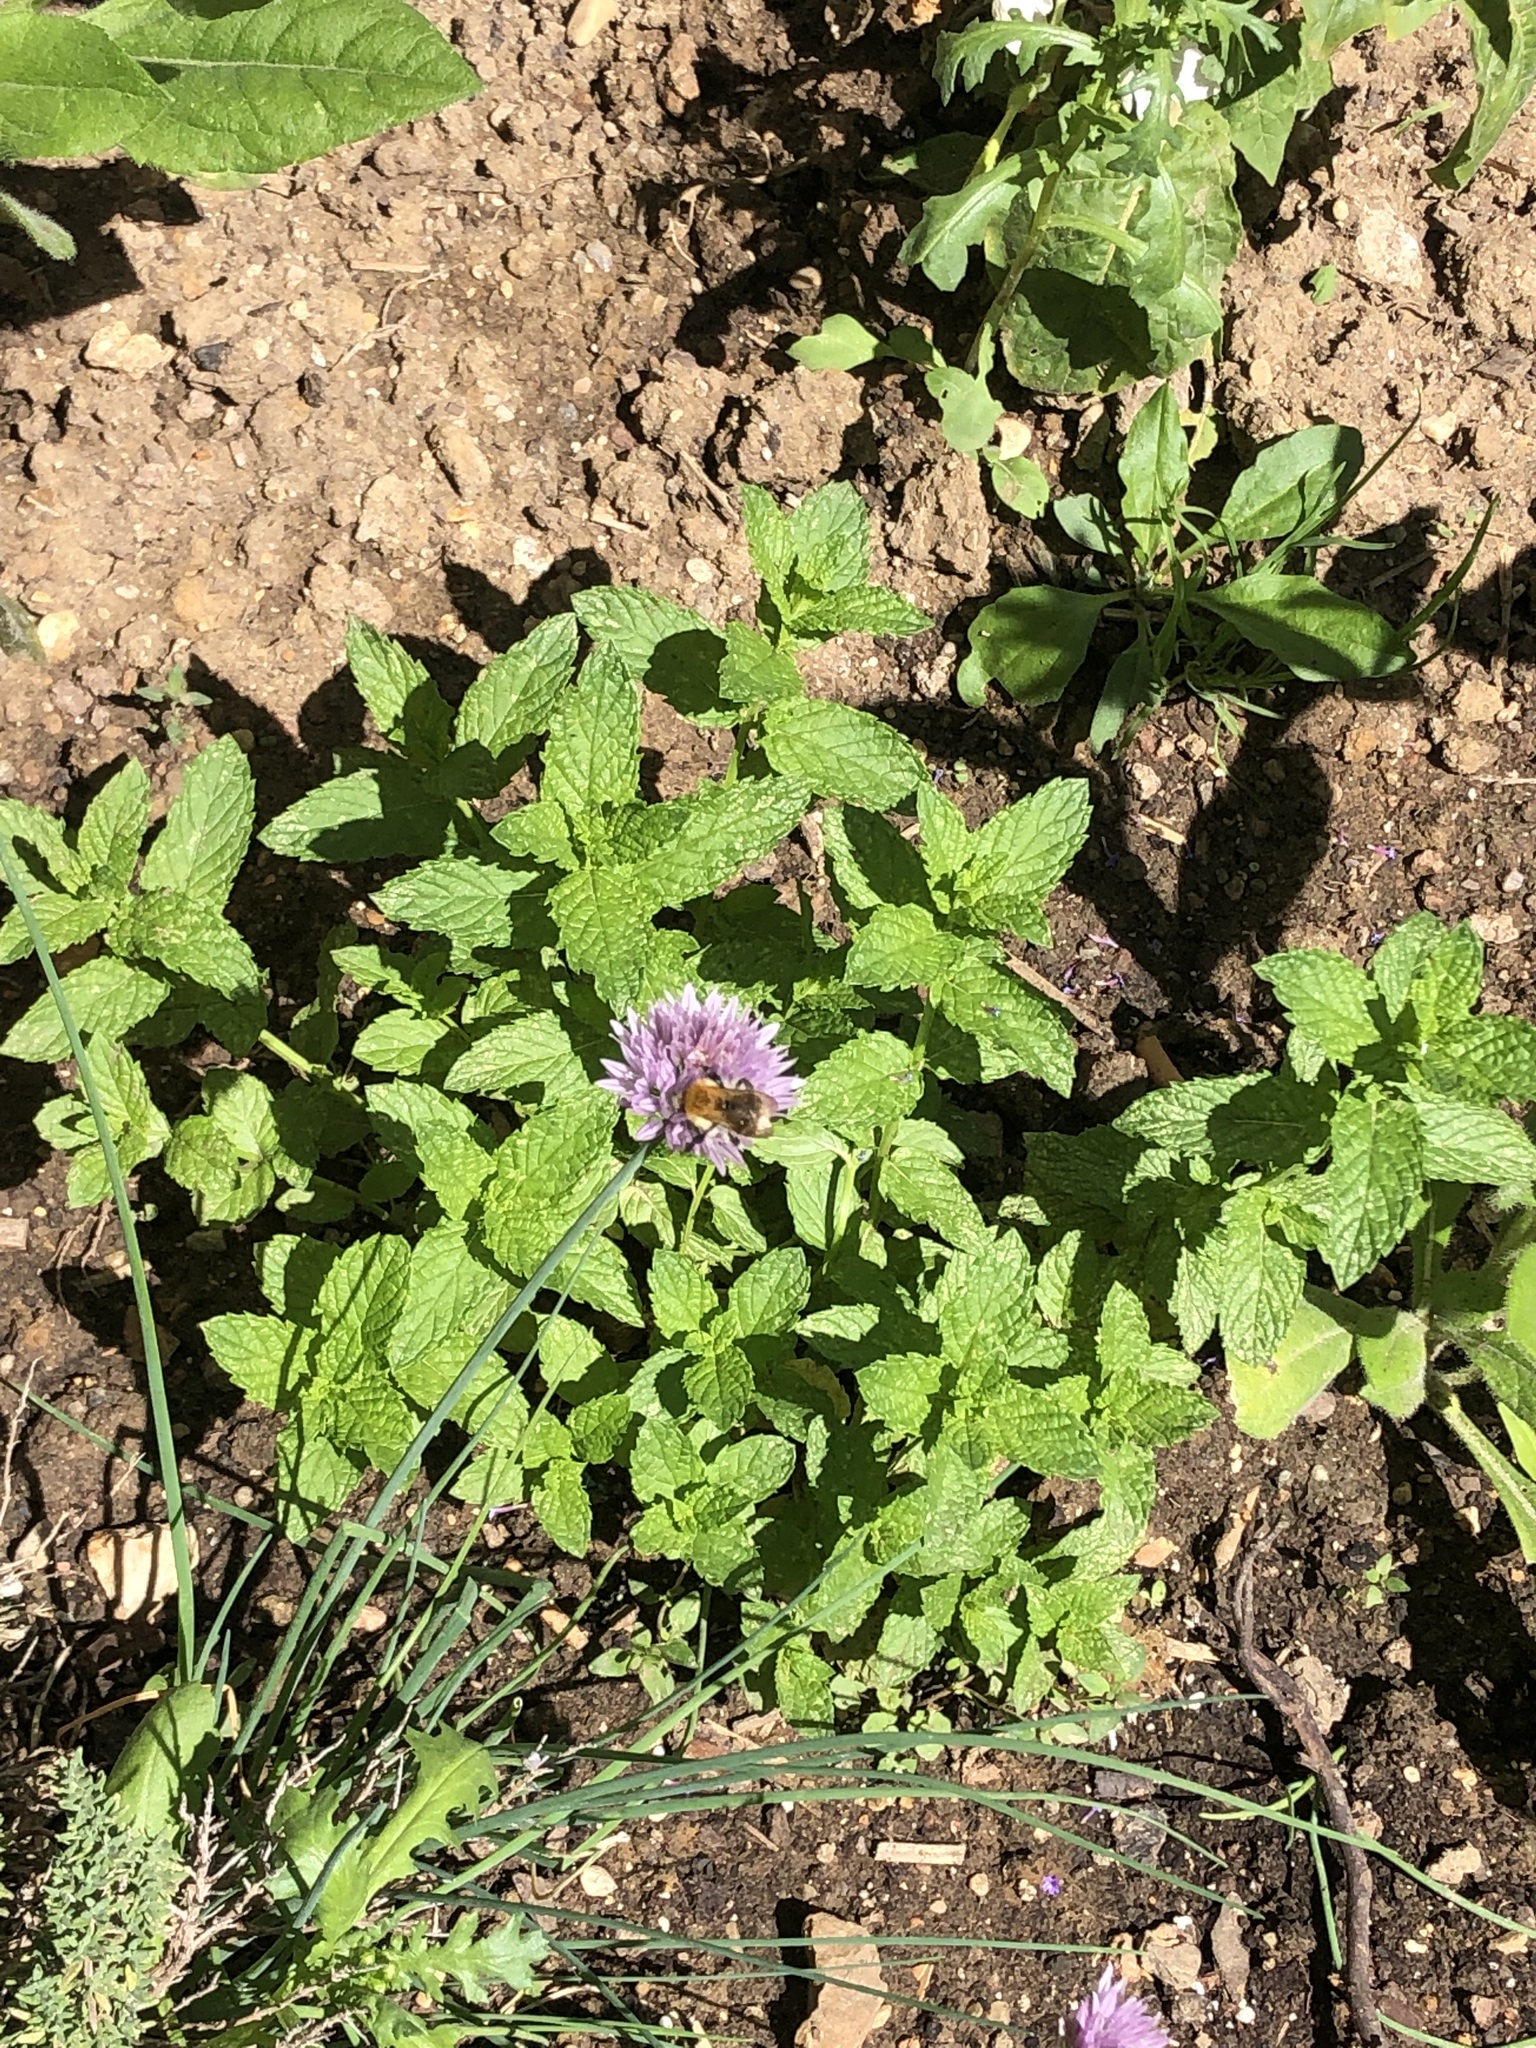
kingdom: Plantae
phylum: Tracheophyta
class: Liliopsida
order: Asparagales
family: Amaryllidaceae
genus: Allium
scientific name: Allium schoenoprasum
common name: Chives
